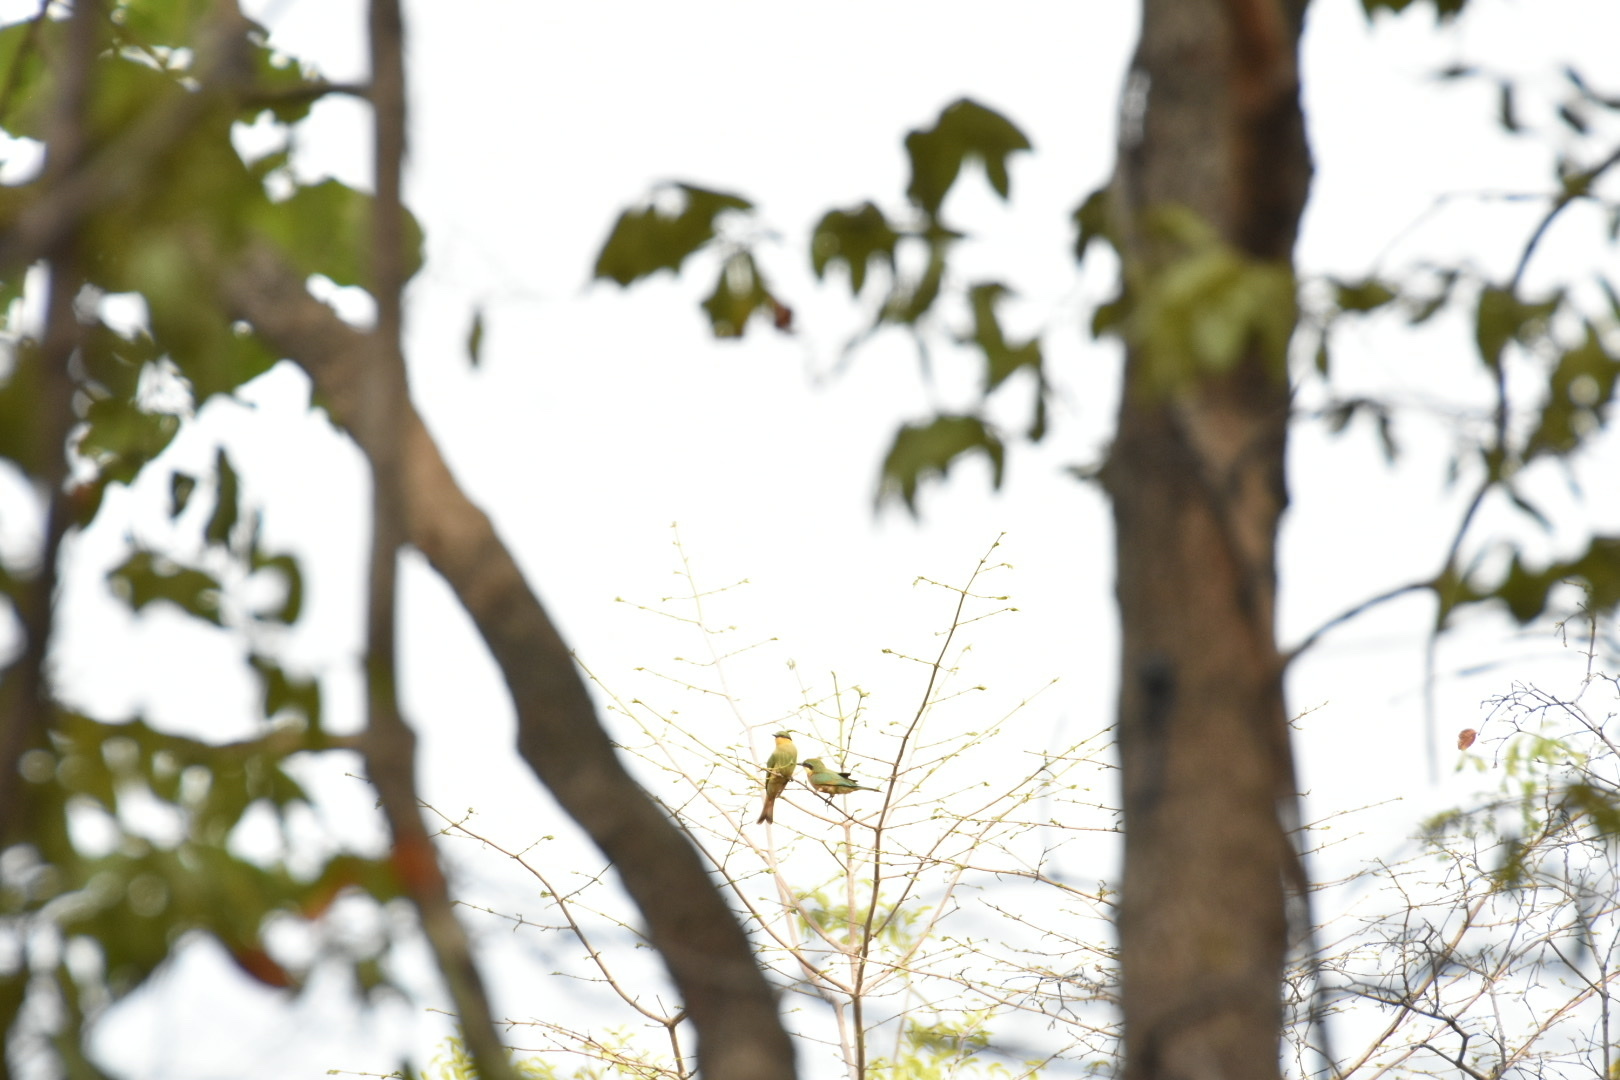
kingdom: Animalia
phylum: Chordata
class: Aves
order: Coraciiformes
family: Meropidae
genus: Merops
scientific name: Merops pusillus
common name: Little bee-eater
